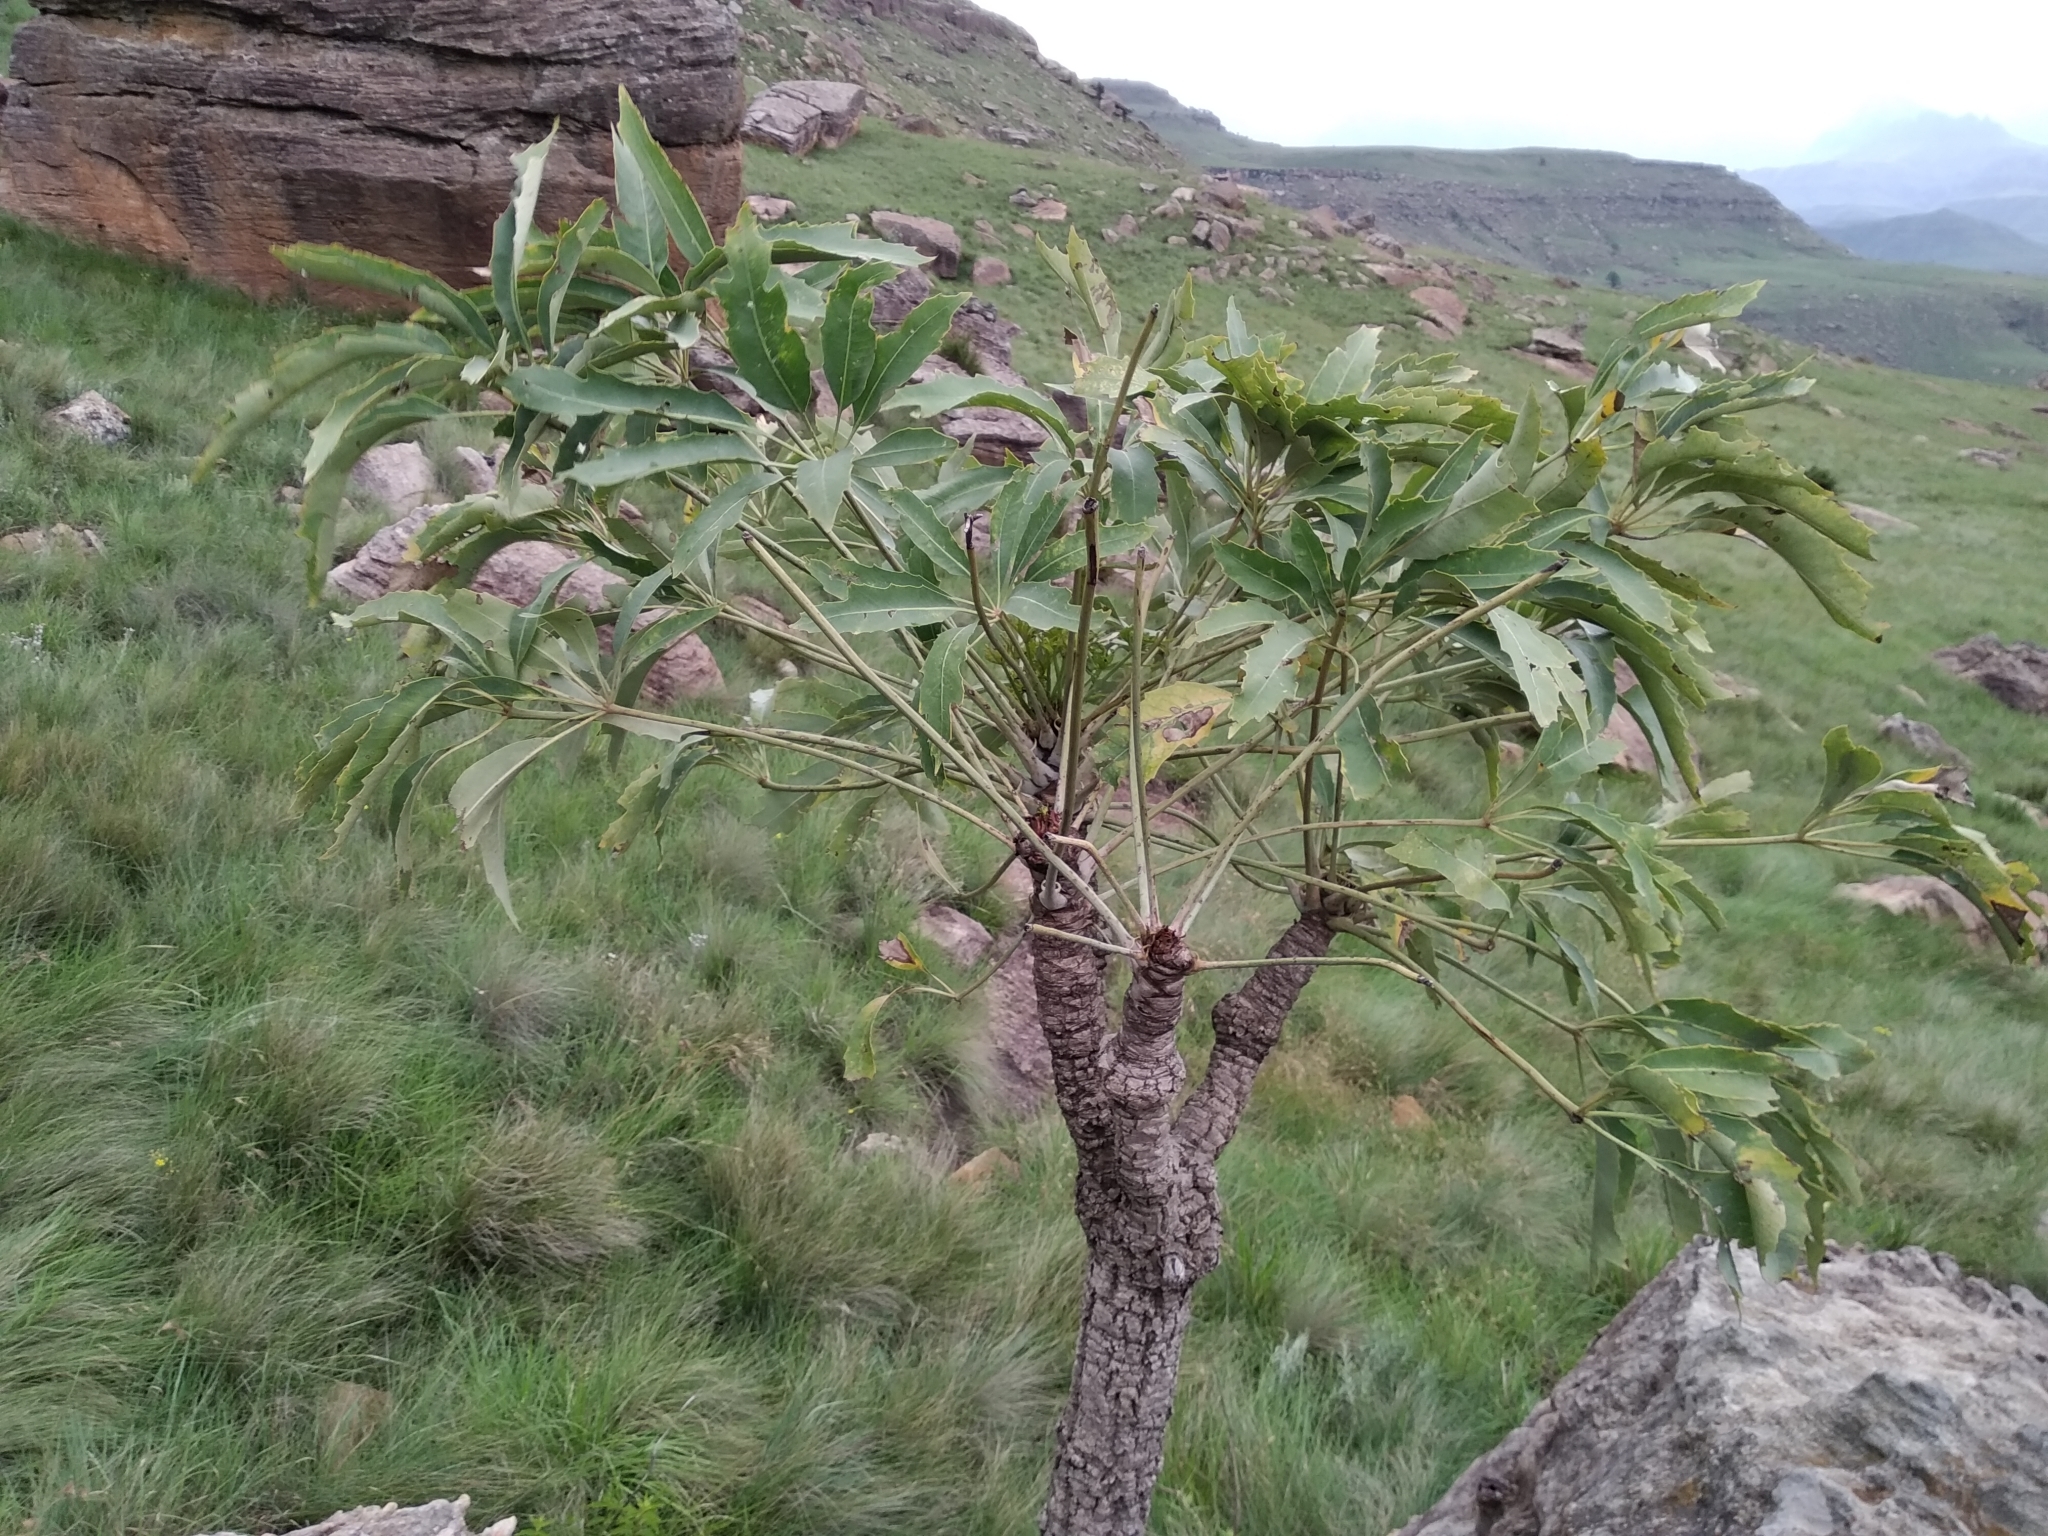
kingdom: Plantae
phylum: Tracheophyta
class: Magnoliopsida
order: Apiales
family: Araliaceae
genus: Cussonia
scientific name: Cussonia paniculata
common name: Cabbagetree
